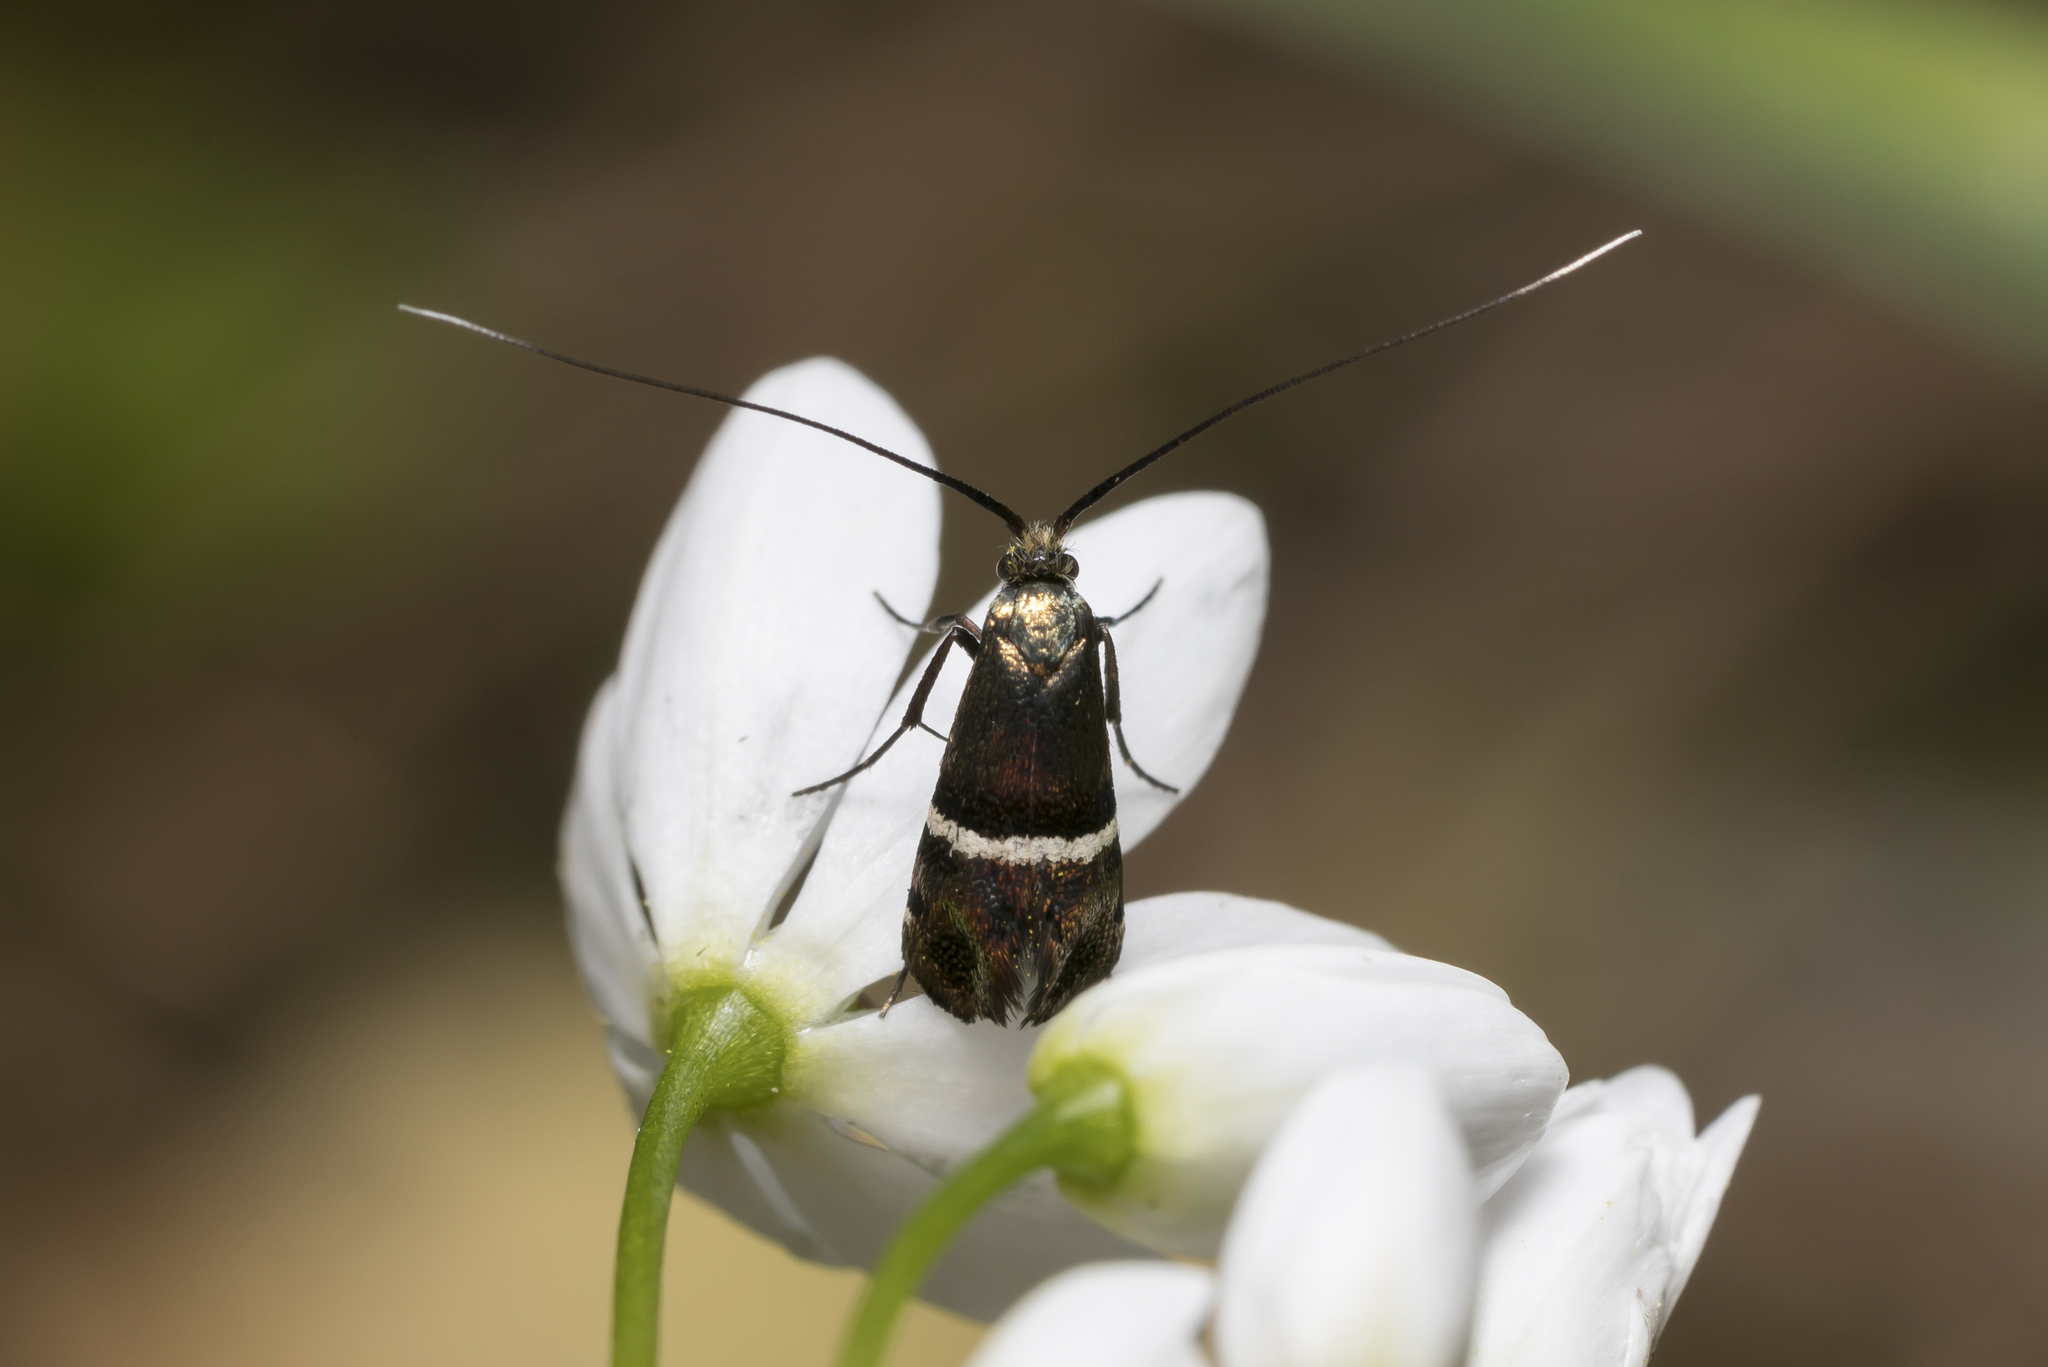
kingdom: Animalia
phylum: Arthropoda
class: Insecta
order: Lepidoptera
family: Adelidae
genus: Adela
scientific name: Adela paludicolella
